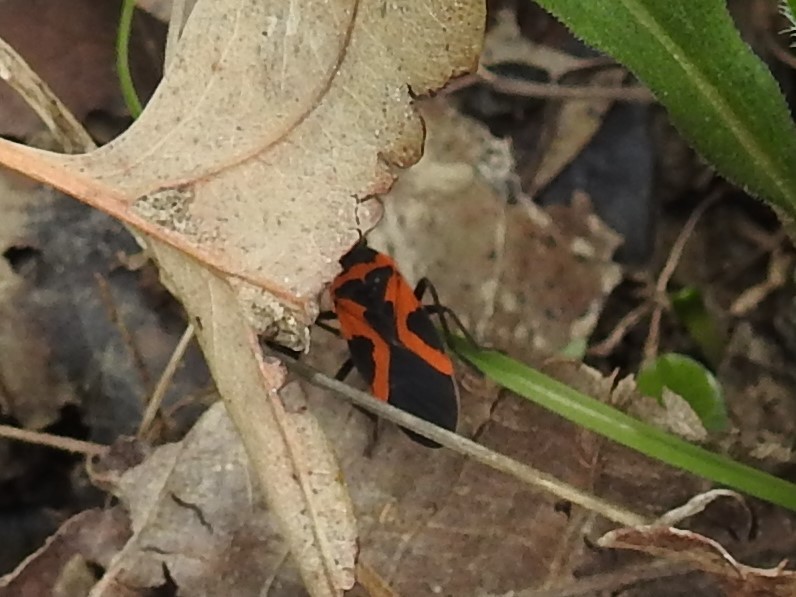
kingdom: Animalia
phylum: Arthropoda
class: Insecta
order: Hemiptera
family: Lygaeidae
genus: Lygaeus
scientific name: Lygaeus turcicus
